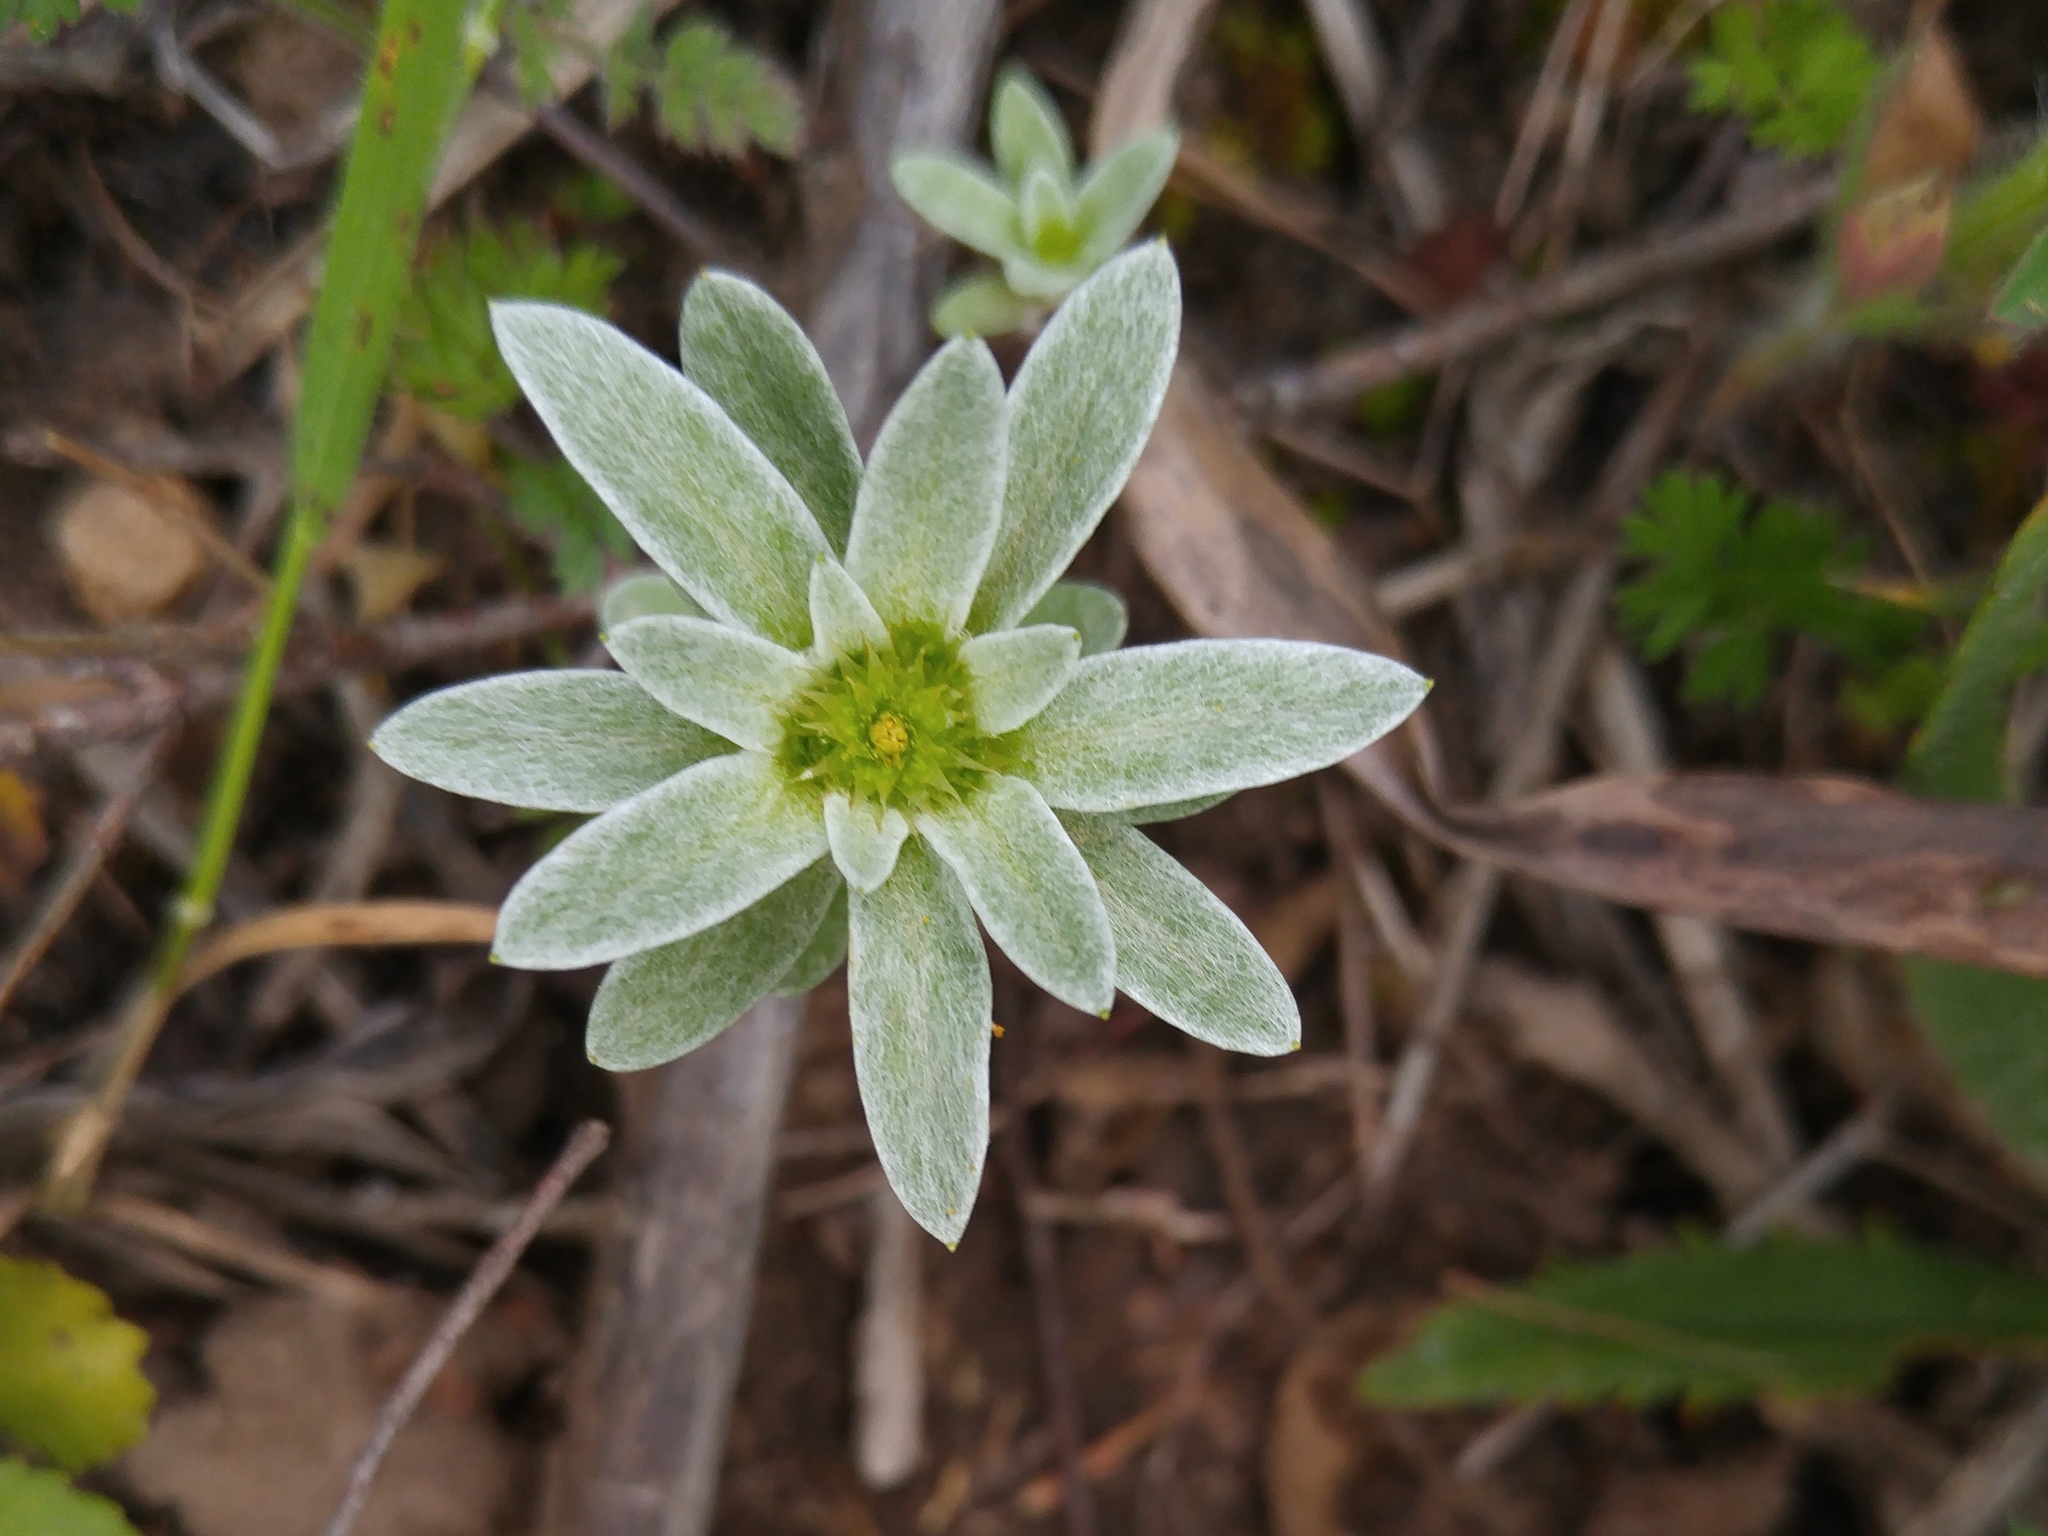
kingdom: Plantae
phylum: Tracheophyta
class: Magnoliopsida
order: Asterales
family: Asteraceae
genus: Filago
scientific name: Filago asterisciflora
